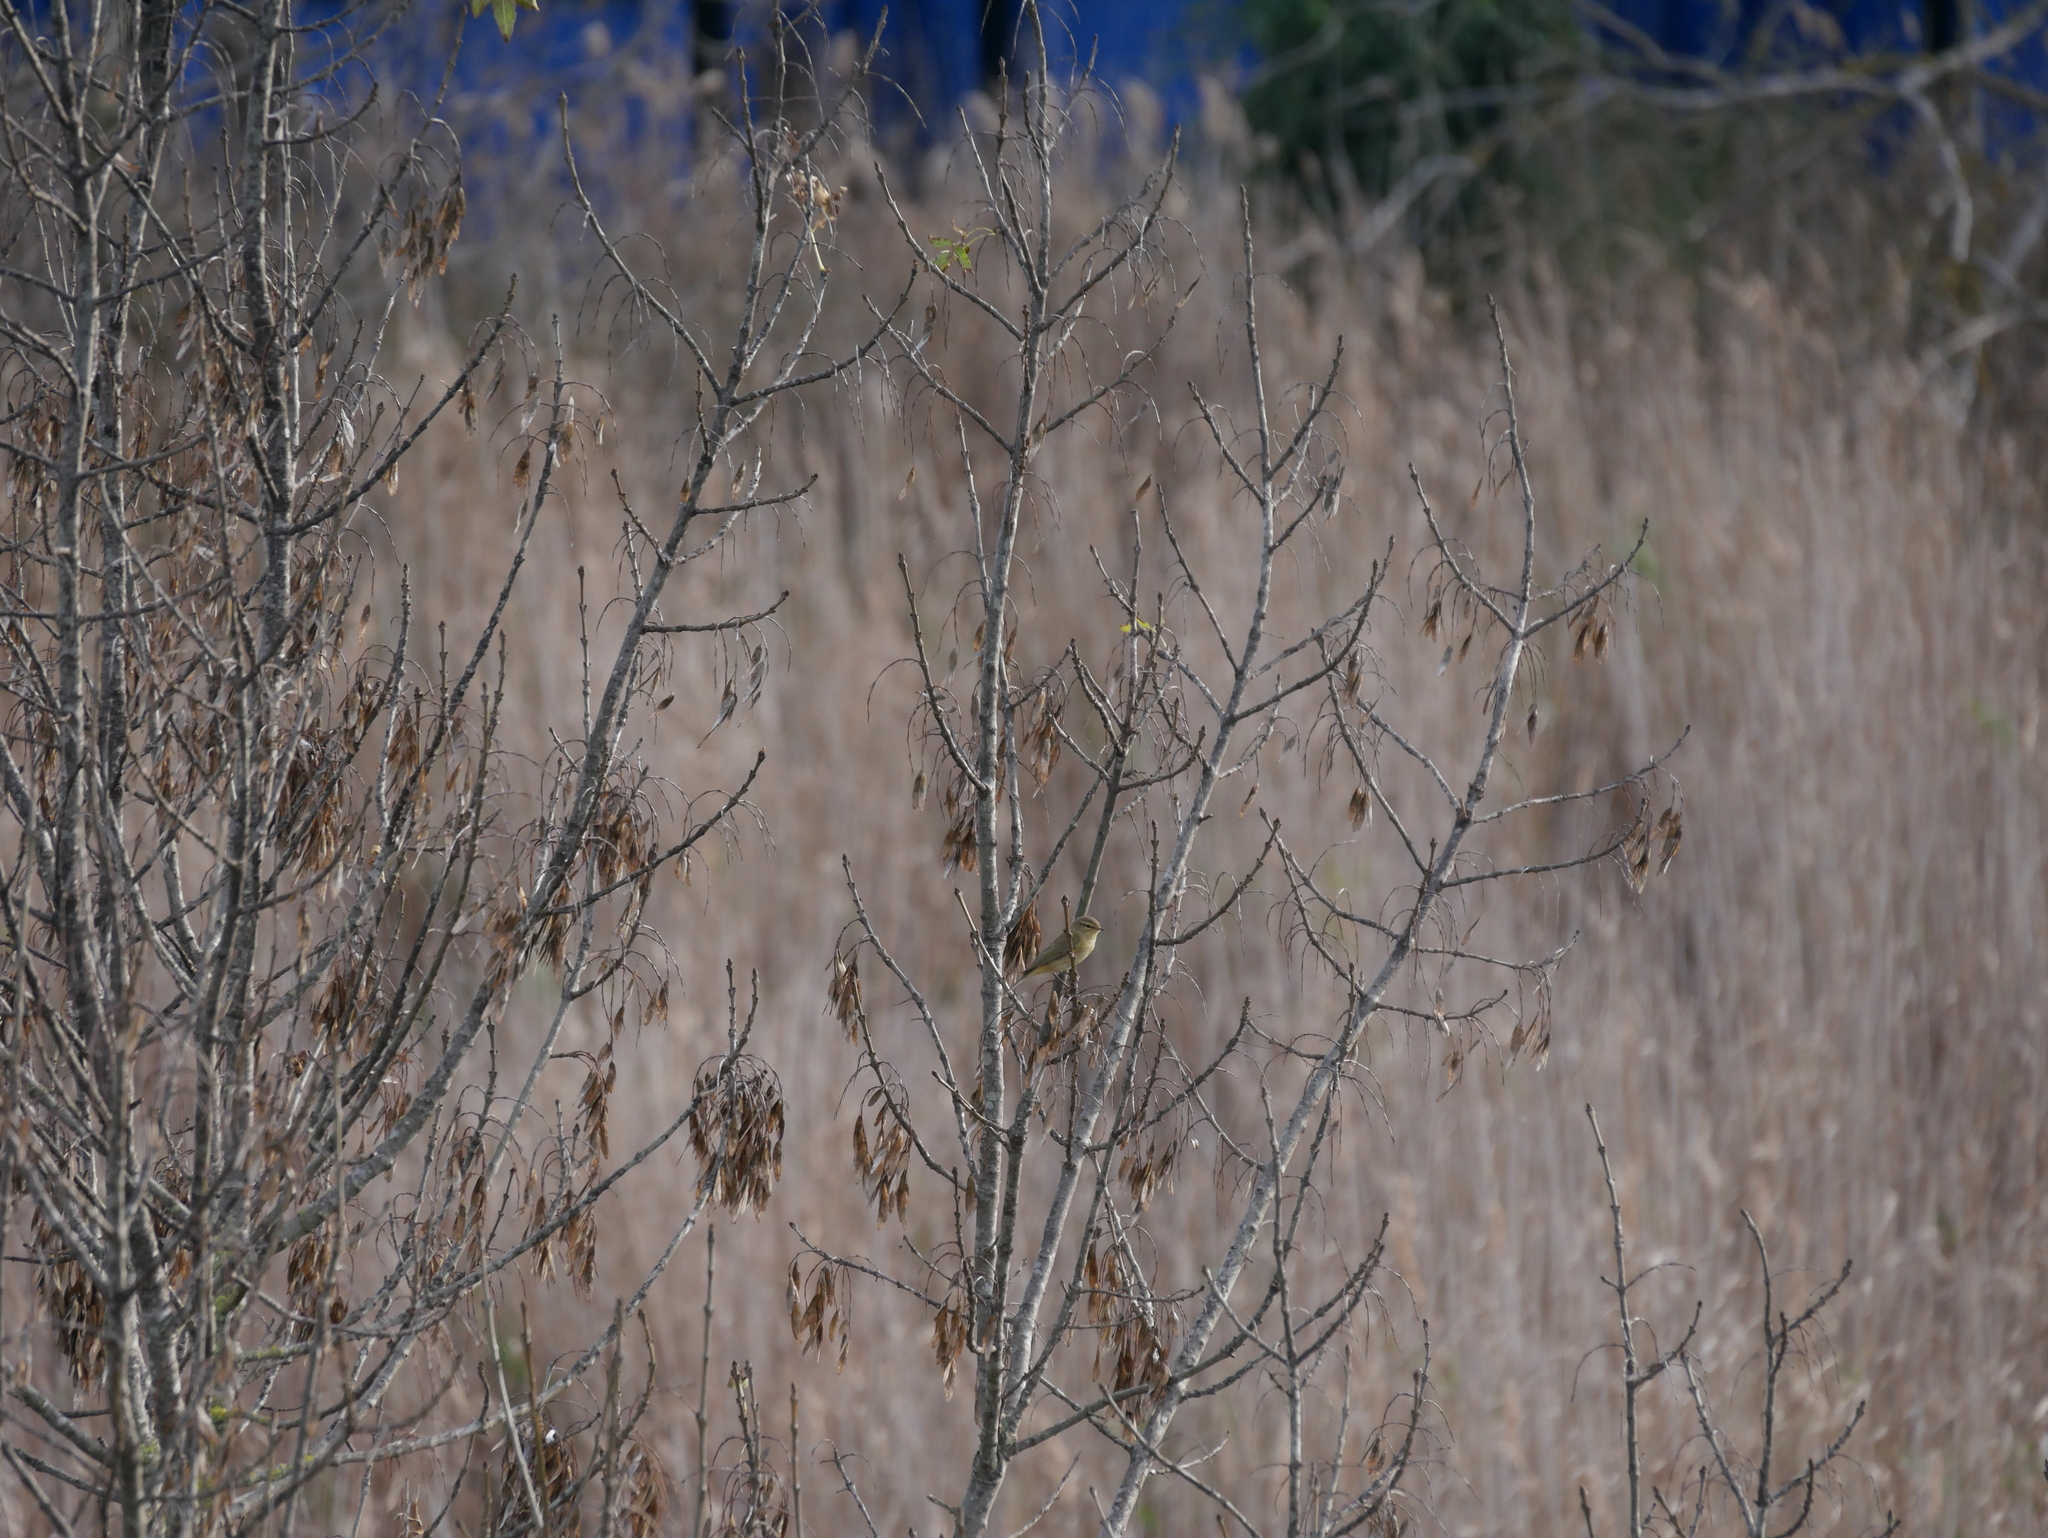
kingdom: Animalia
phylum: Chordata
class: Aves
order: Passeriformes
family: Phylloscopidae
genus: Phylloscopus
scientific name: Phylloscopus collybita
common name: Common chiffchaff
